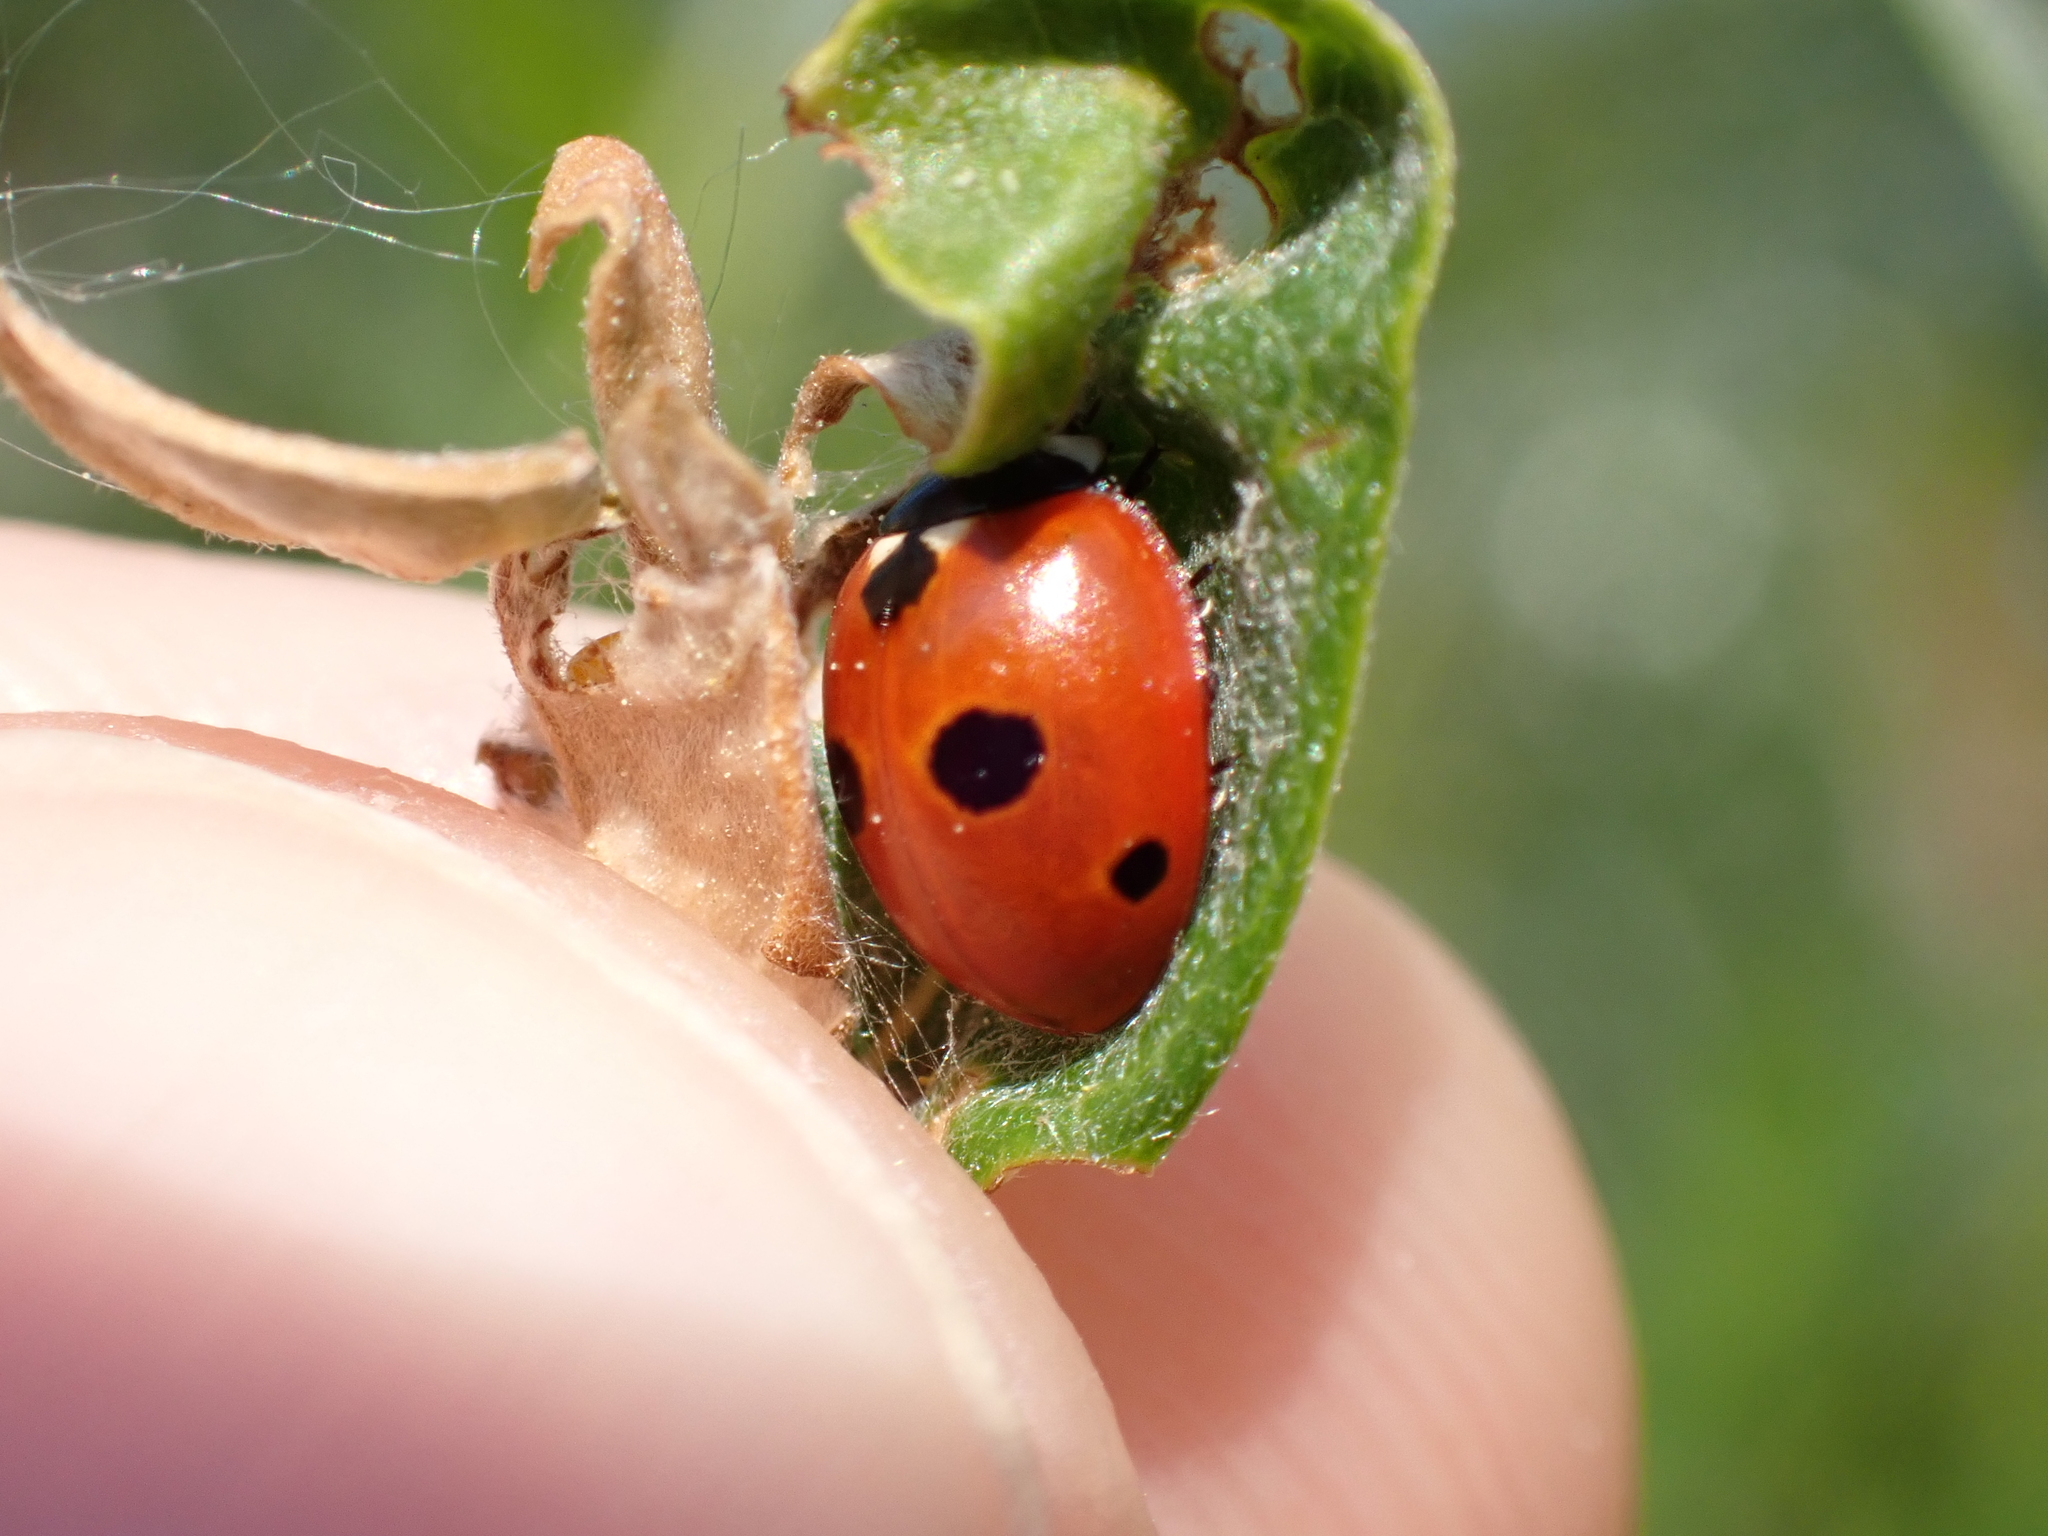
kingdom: Animalia
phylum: Arthropoda
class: Insecta
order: Coleoptera
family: Coccinellidae
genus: Coccinella
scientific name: Coccinella quinquepunctata
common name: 5-spot ladybird
